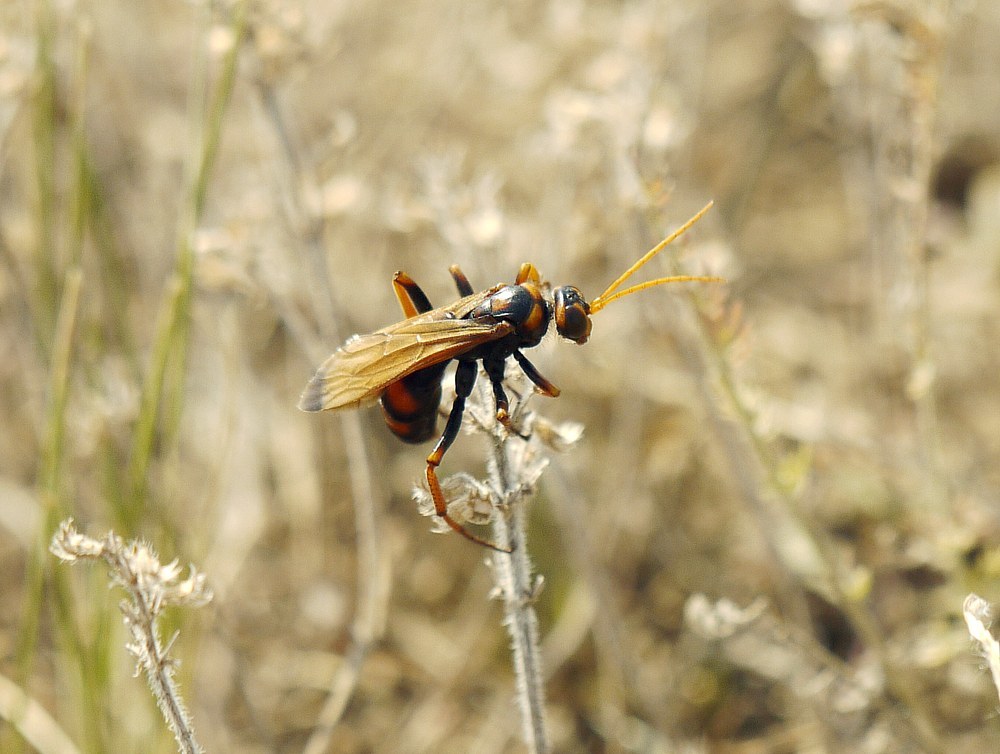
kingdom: Animalia
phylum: Arthropoda
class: Insecta
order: Hymenoptera
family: Pompilidae
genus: Cryptocheilus
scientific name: Cryptocheilus rubellus
